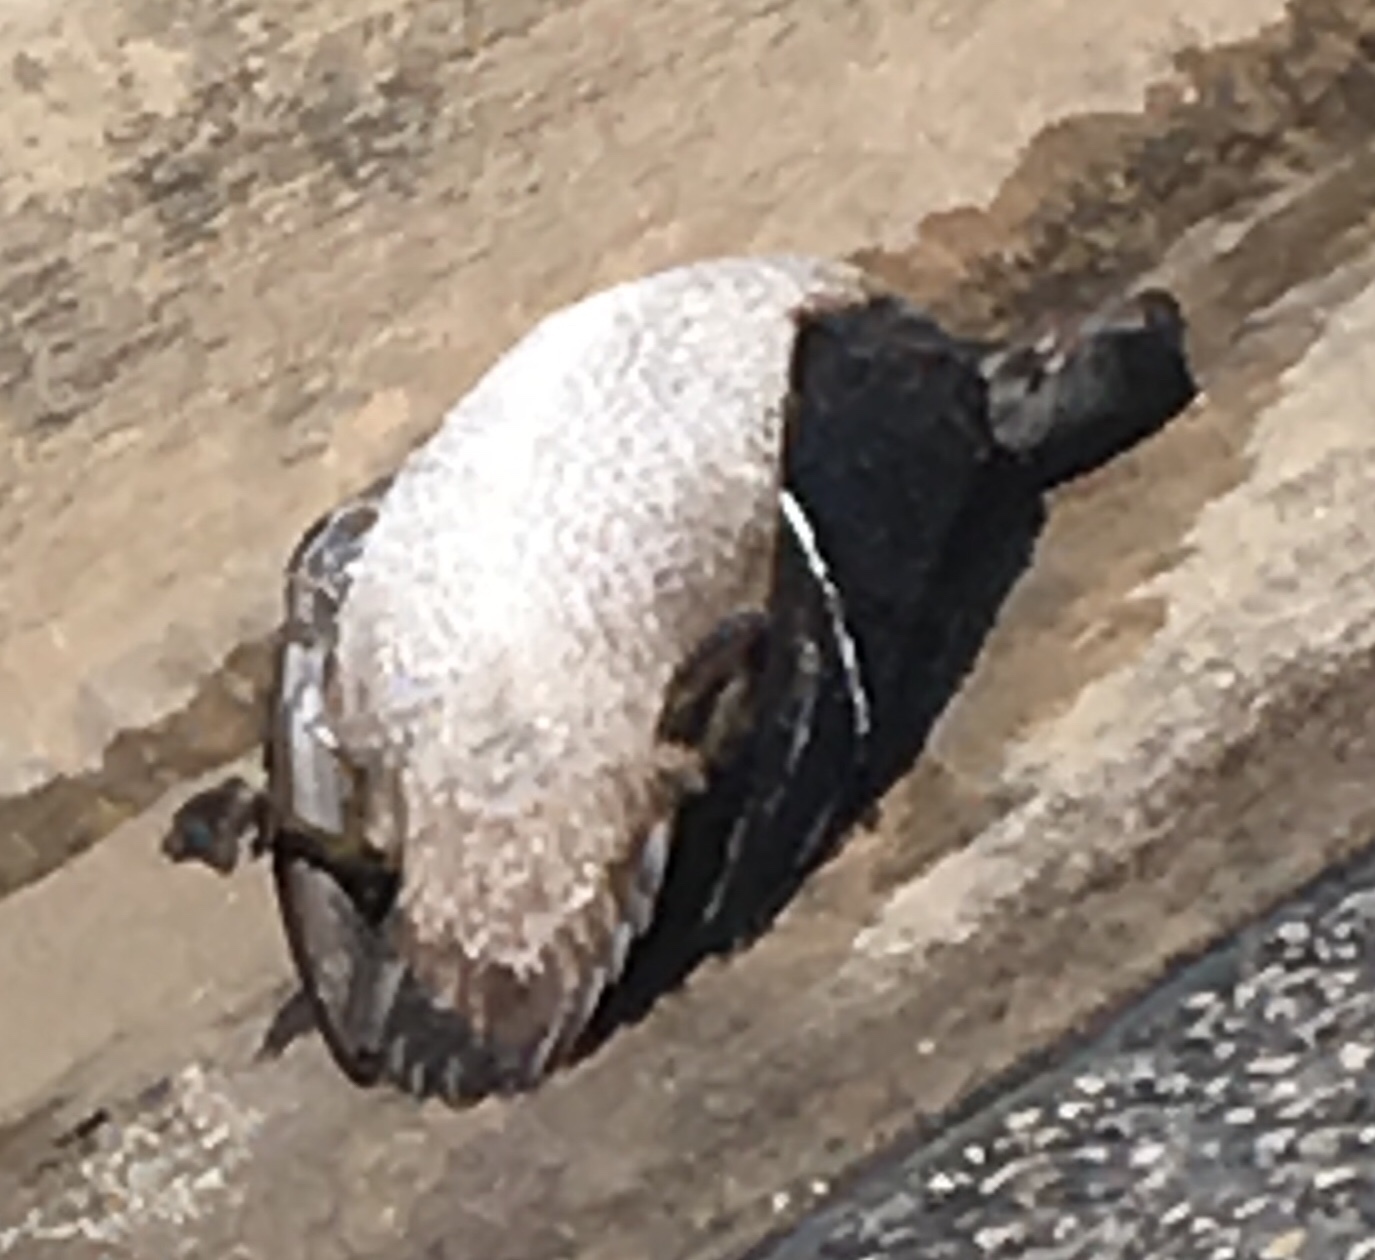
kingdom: Animalia
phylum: Chordata
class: Aves
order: Anseriformes
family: Anatidae
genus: Aix
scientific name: Aix sponsa
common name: Wood duck
